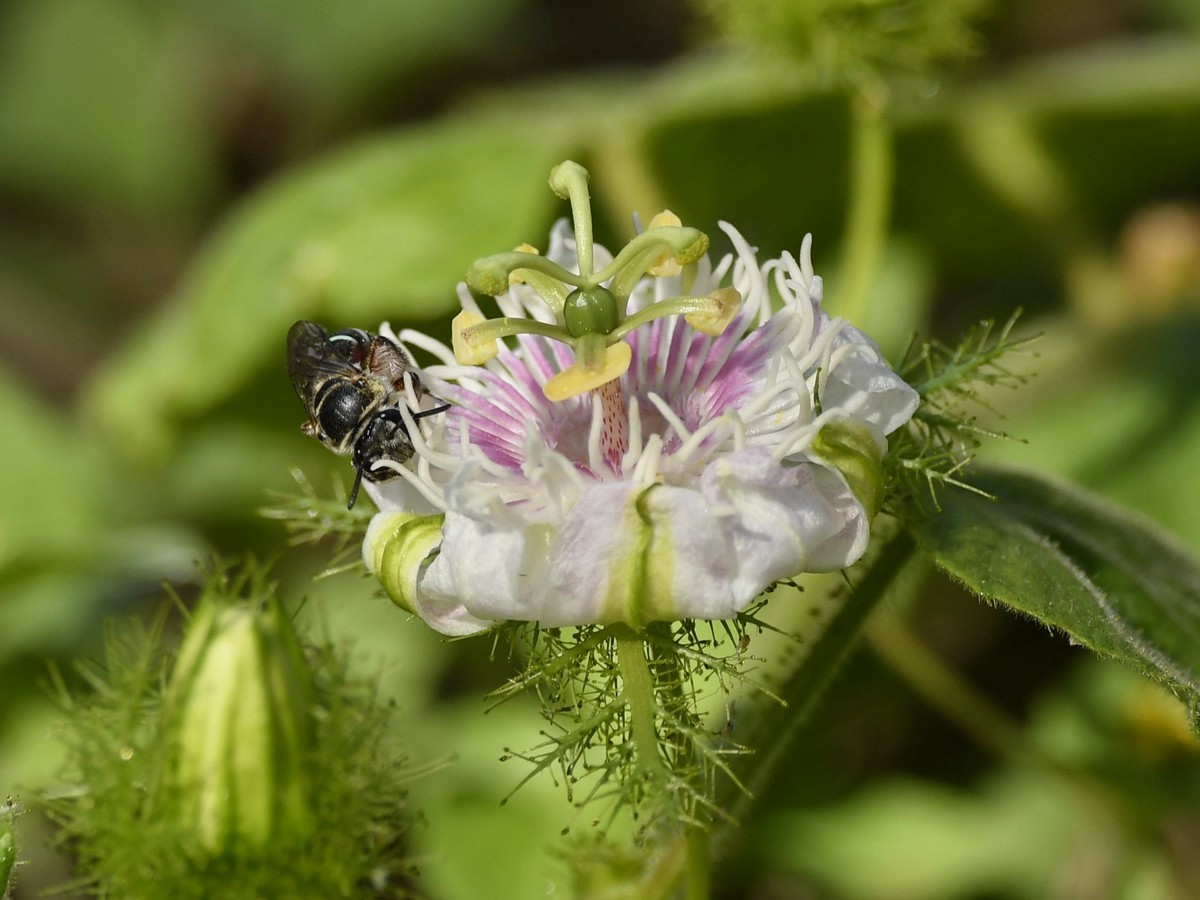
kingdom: Plantae
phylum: Tracheophyta
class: Magnoliopsida
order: Malpighiales
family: Passifloraceae
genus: Passiflora
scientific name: Passiflora foetida
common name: Fetid passionflower
